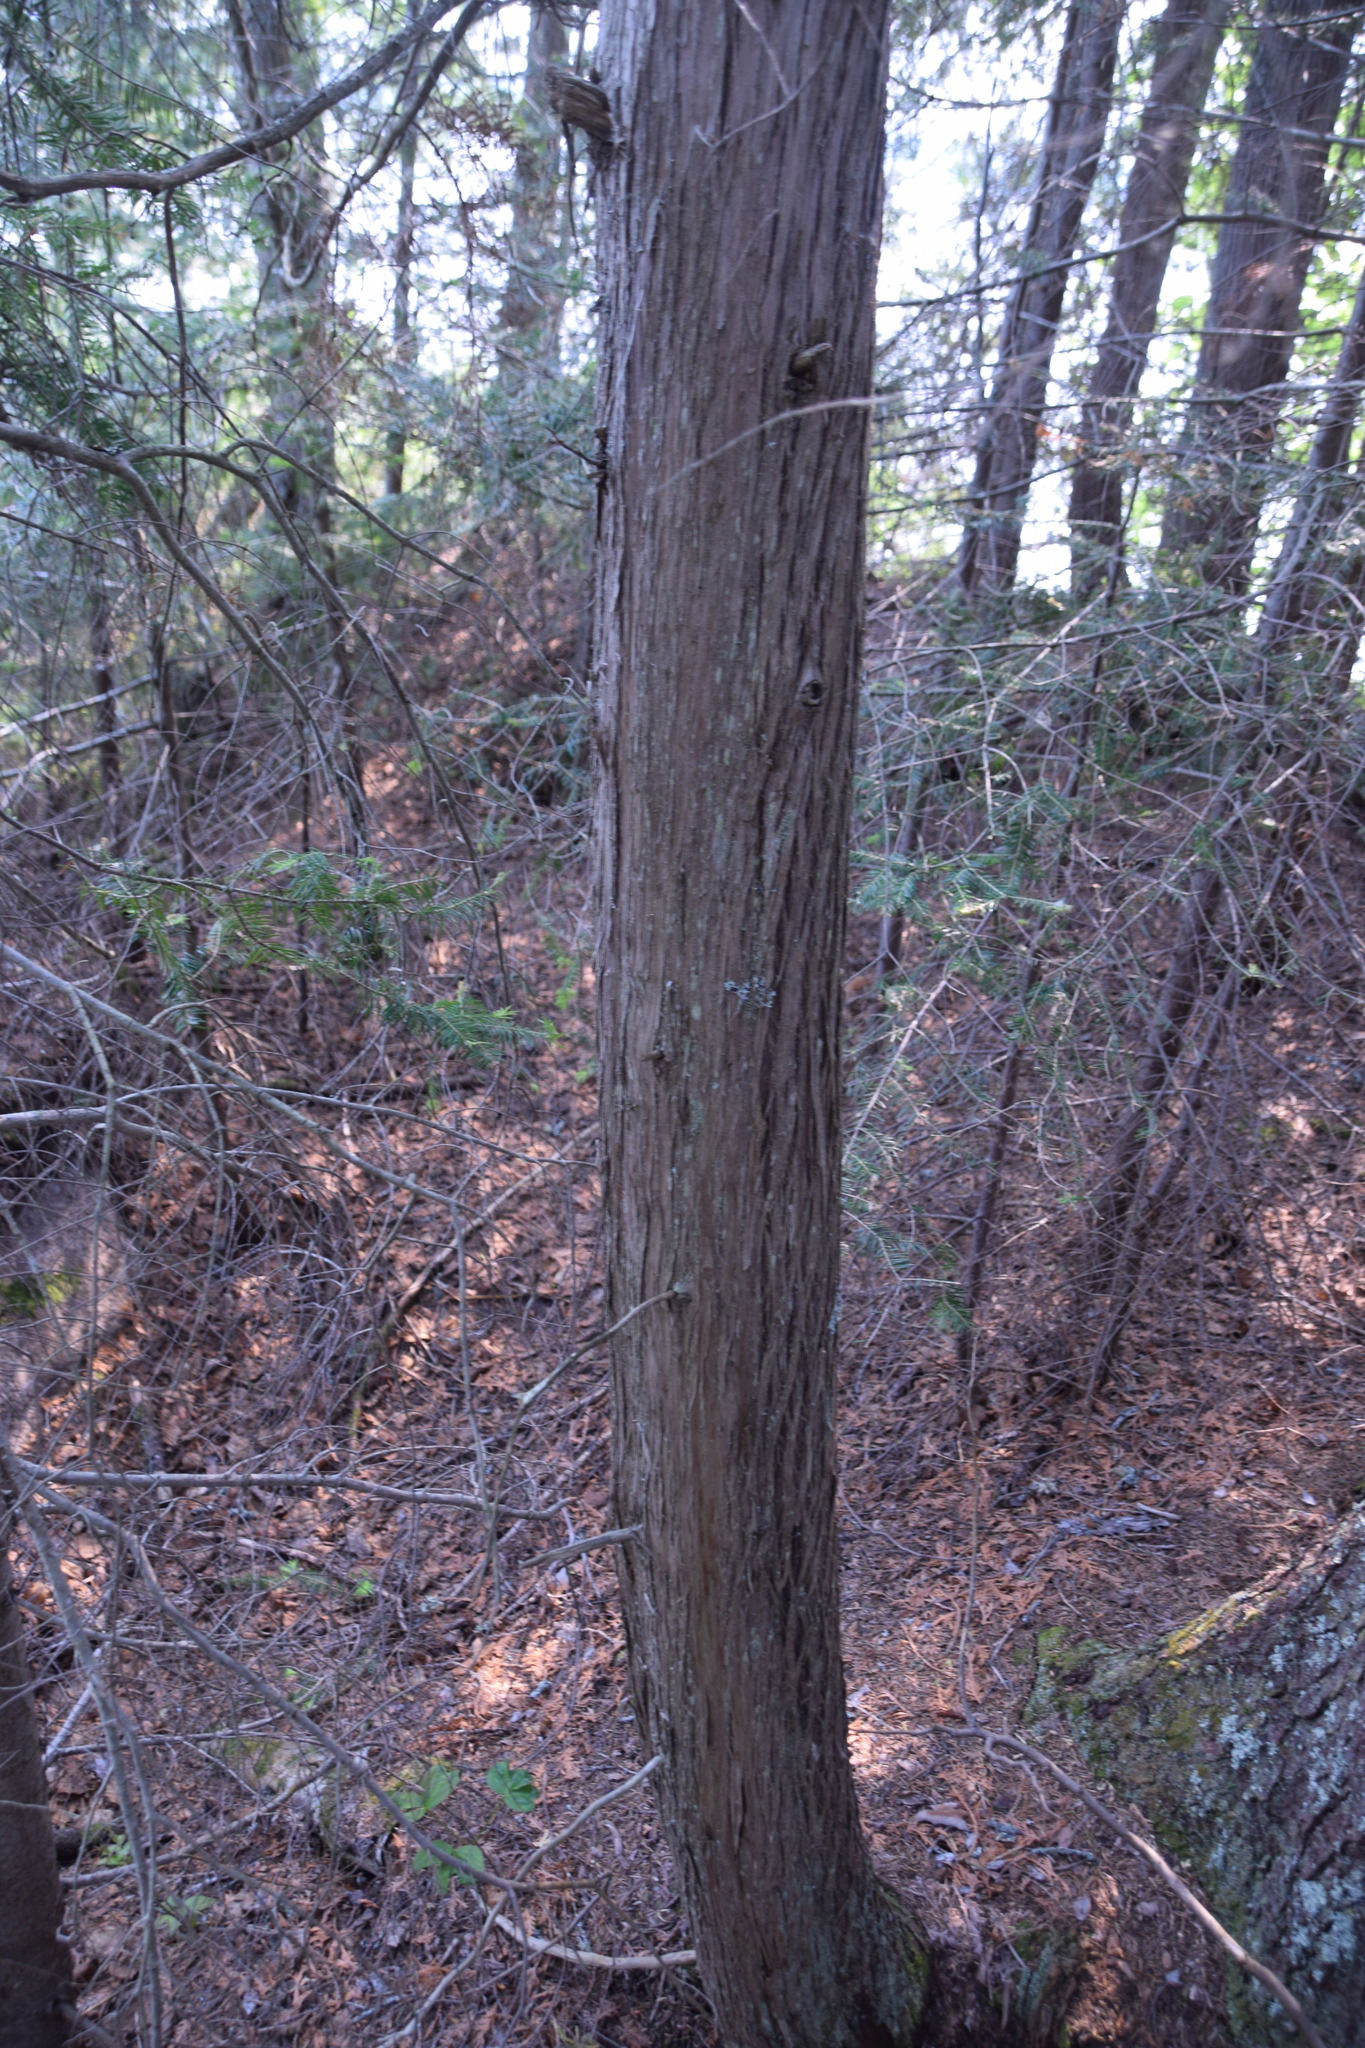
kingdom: Plantae
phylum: Tracheophyta
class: Pinopsida
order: Pinales
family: Cupressaceae
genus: Thuja
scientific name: Thuja occidentalis
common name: Northern white-cedar
